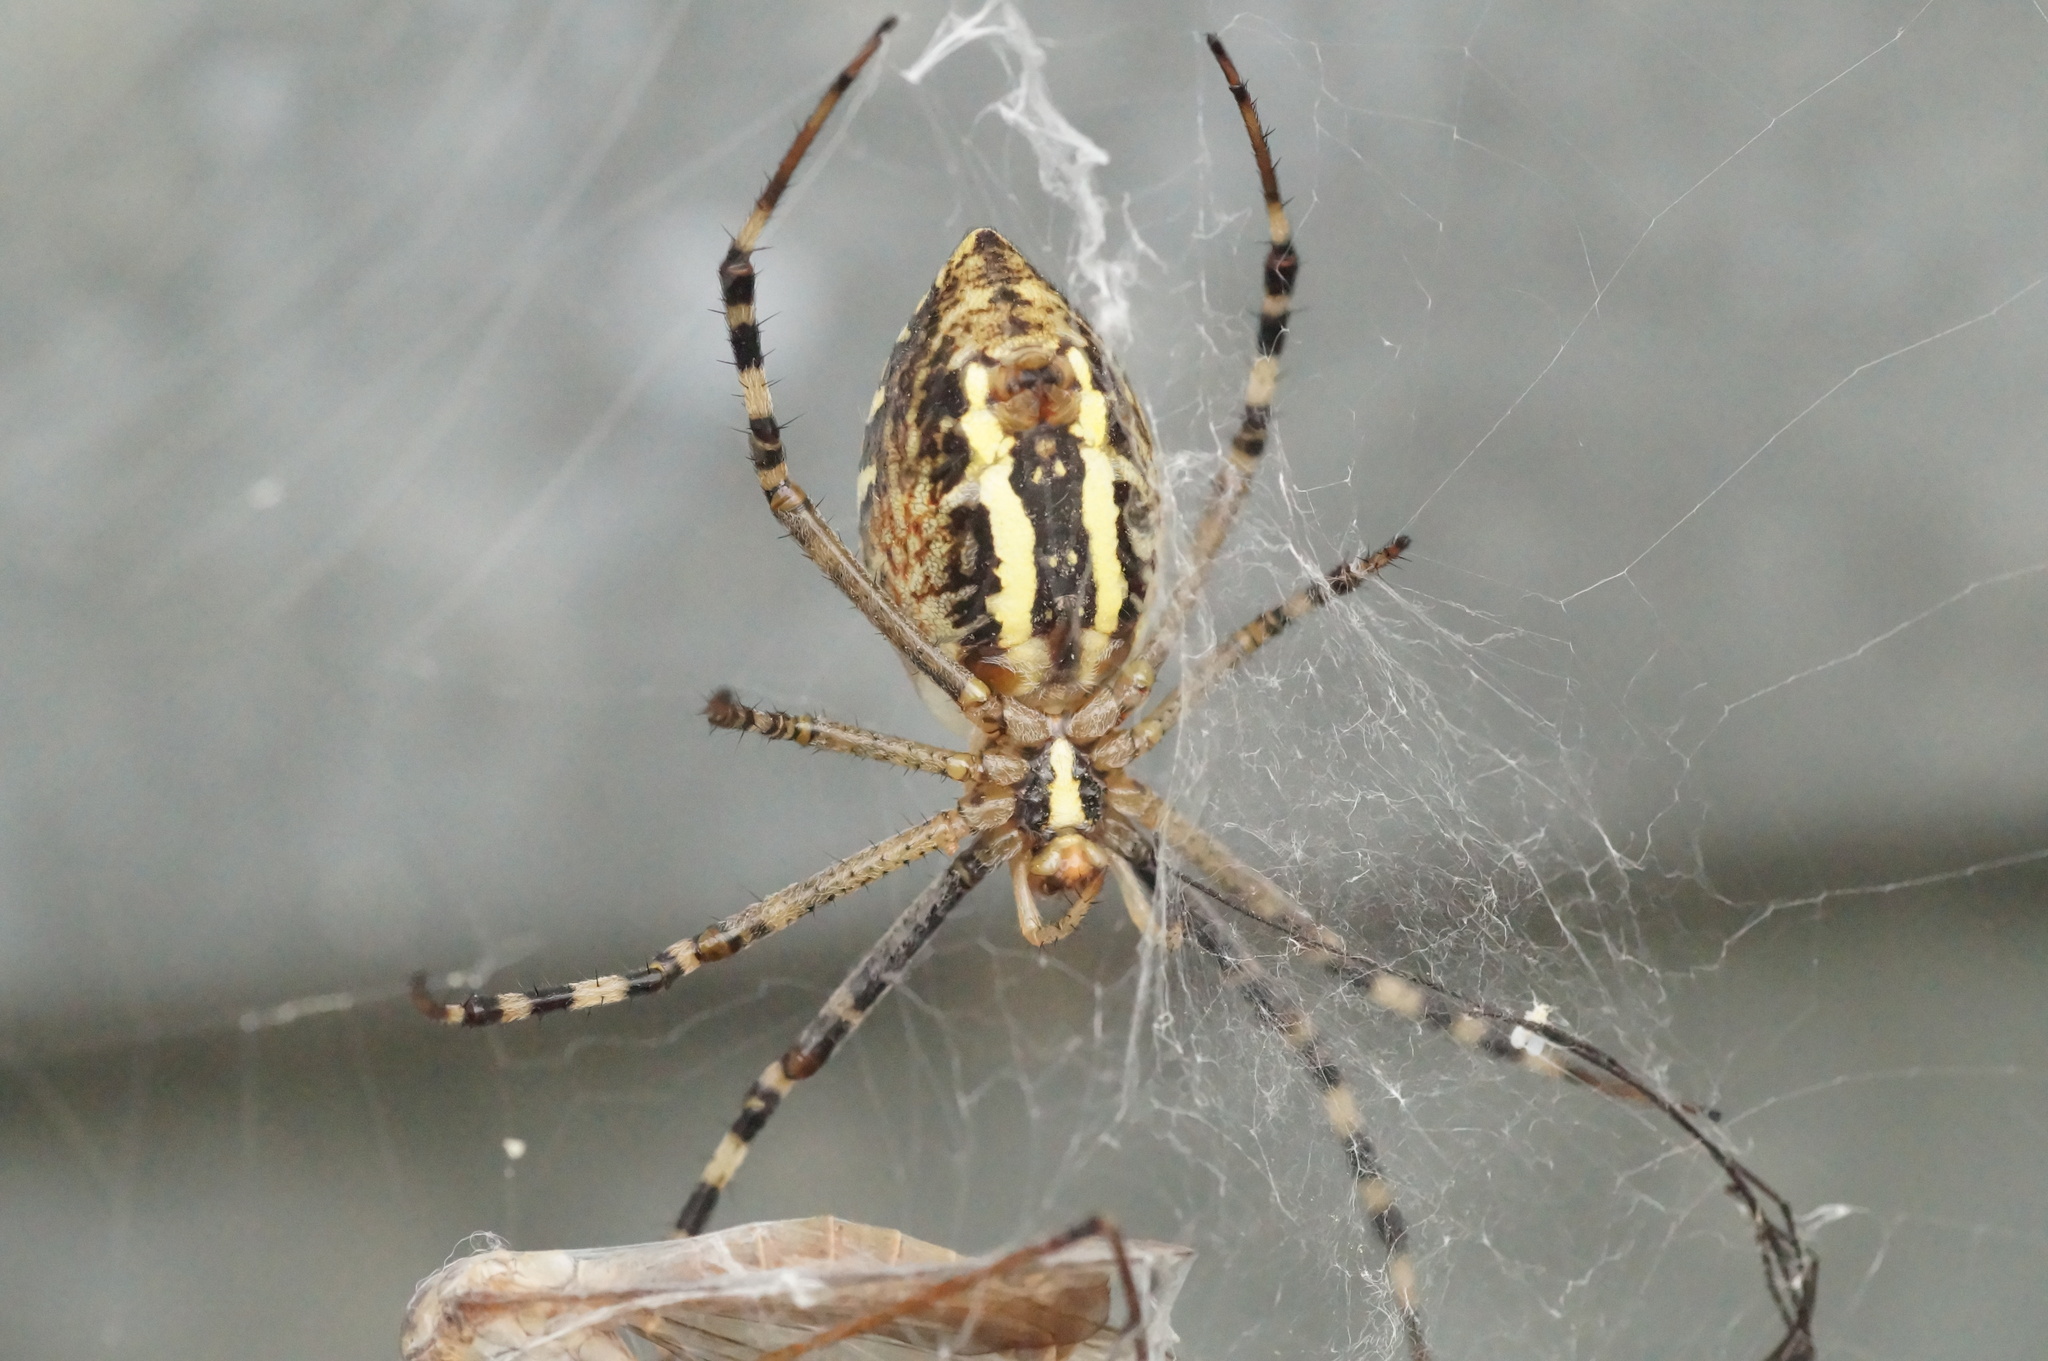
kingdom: Animalia
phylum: Arthropoda
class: Arachnida
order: Araneae
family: Araneidae
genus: Argiope
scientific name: Argiope bruennichi
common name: Wasp spider
